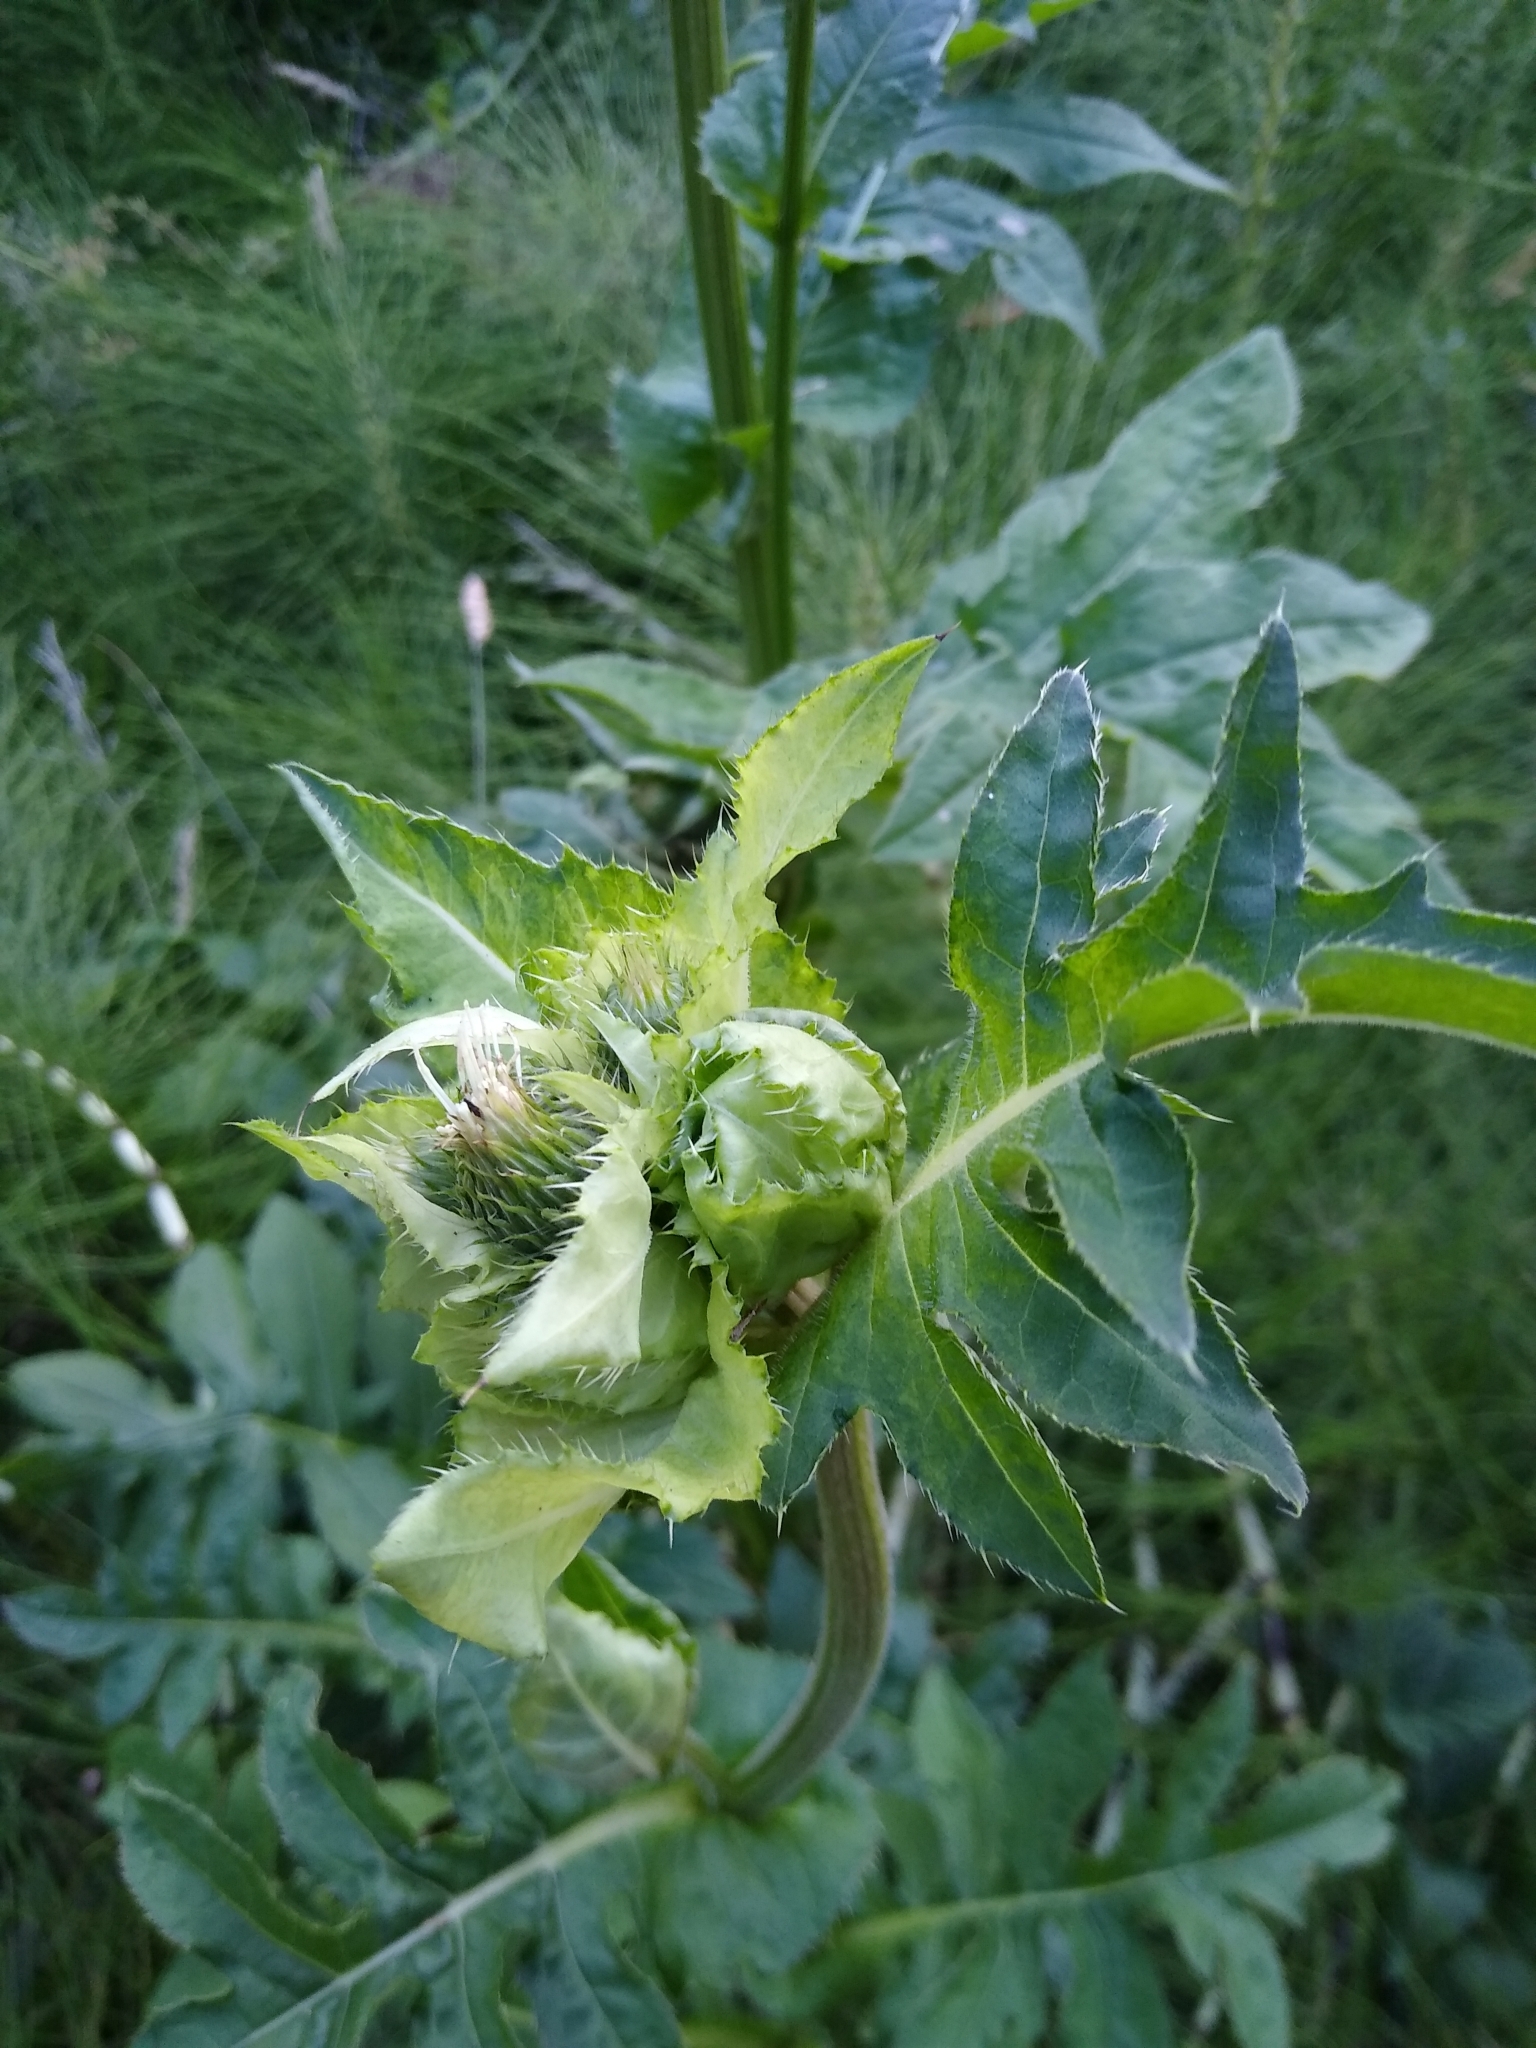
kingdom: Plantae
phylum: Tracheophyta
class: Magnoliopsida
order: Asterales
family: Asteraceae
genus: Cirsium
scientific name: Cirsium oleraceum
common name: Cabbage thistle
